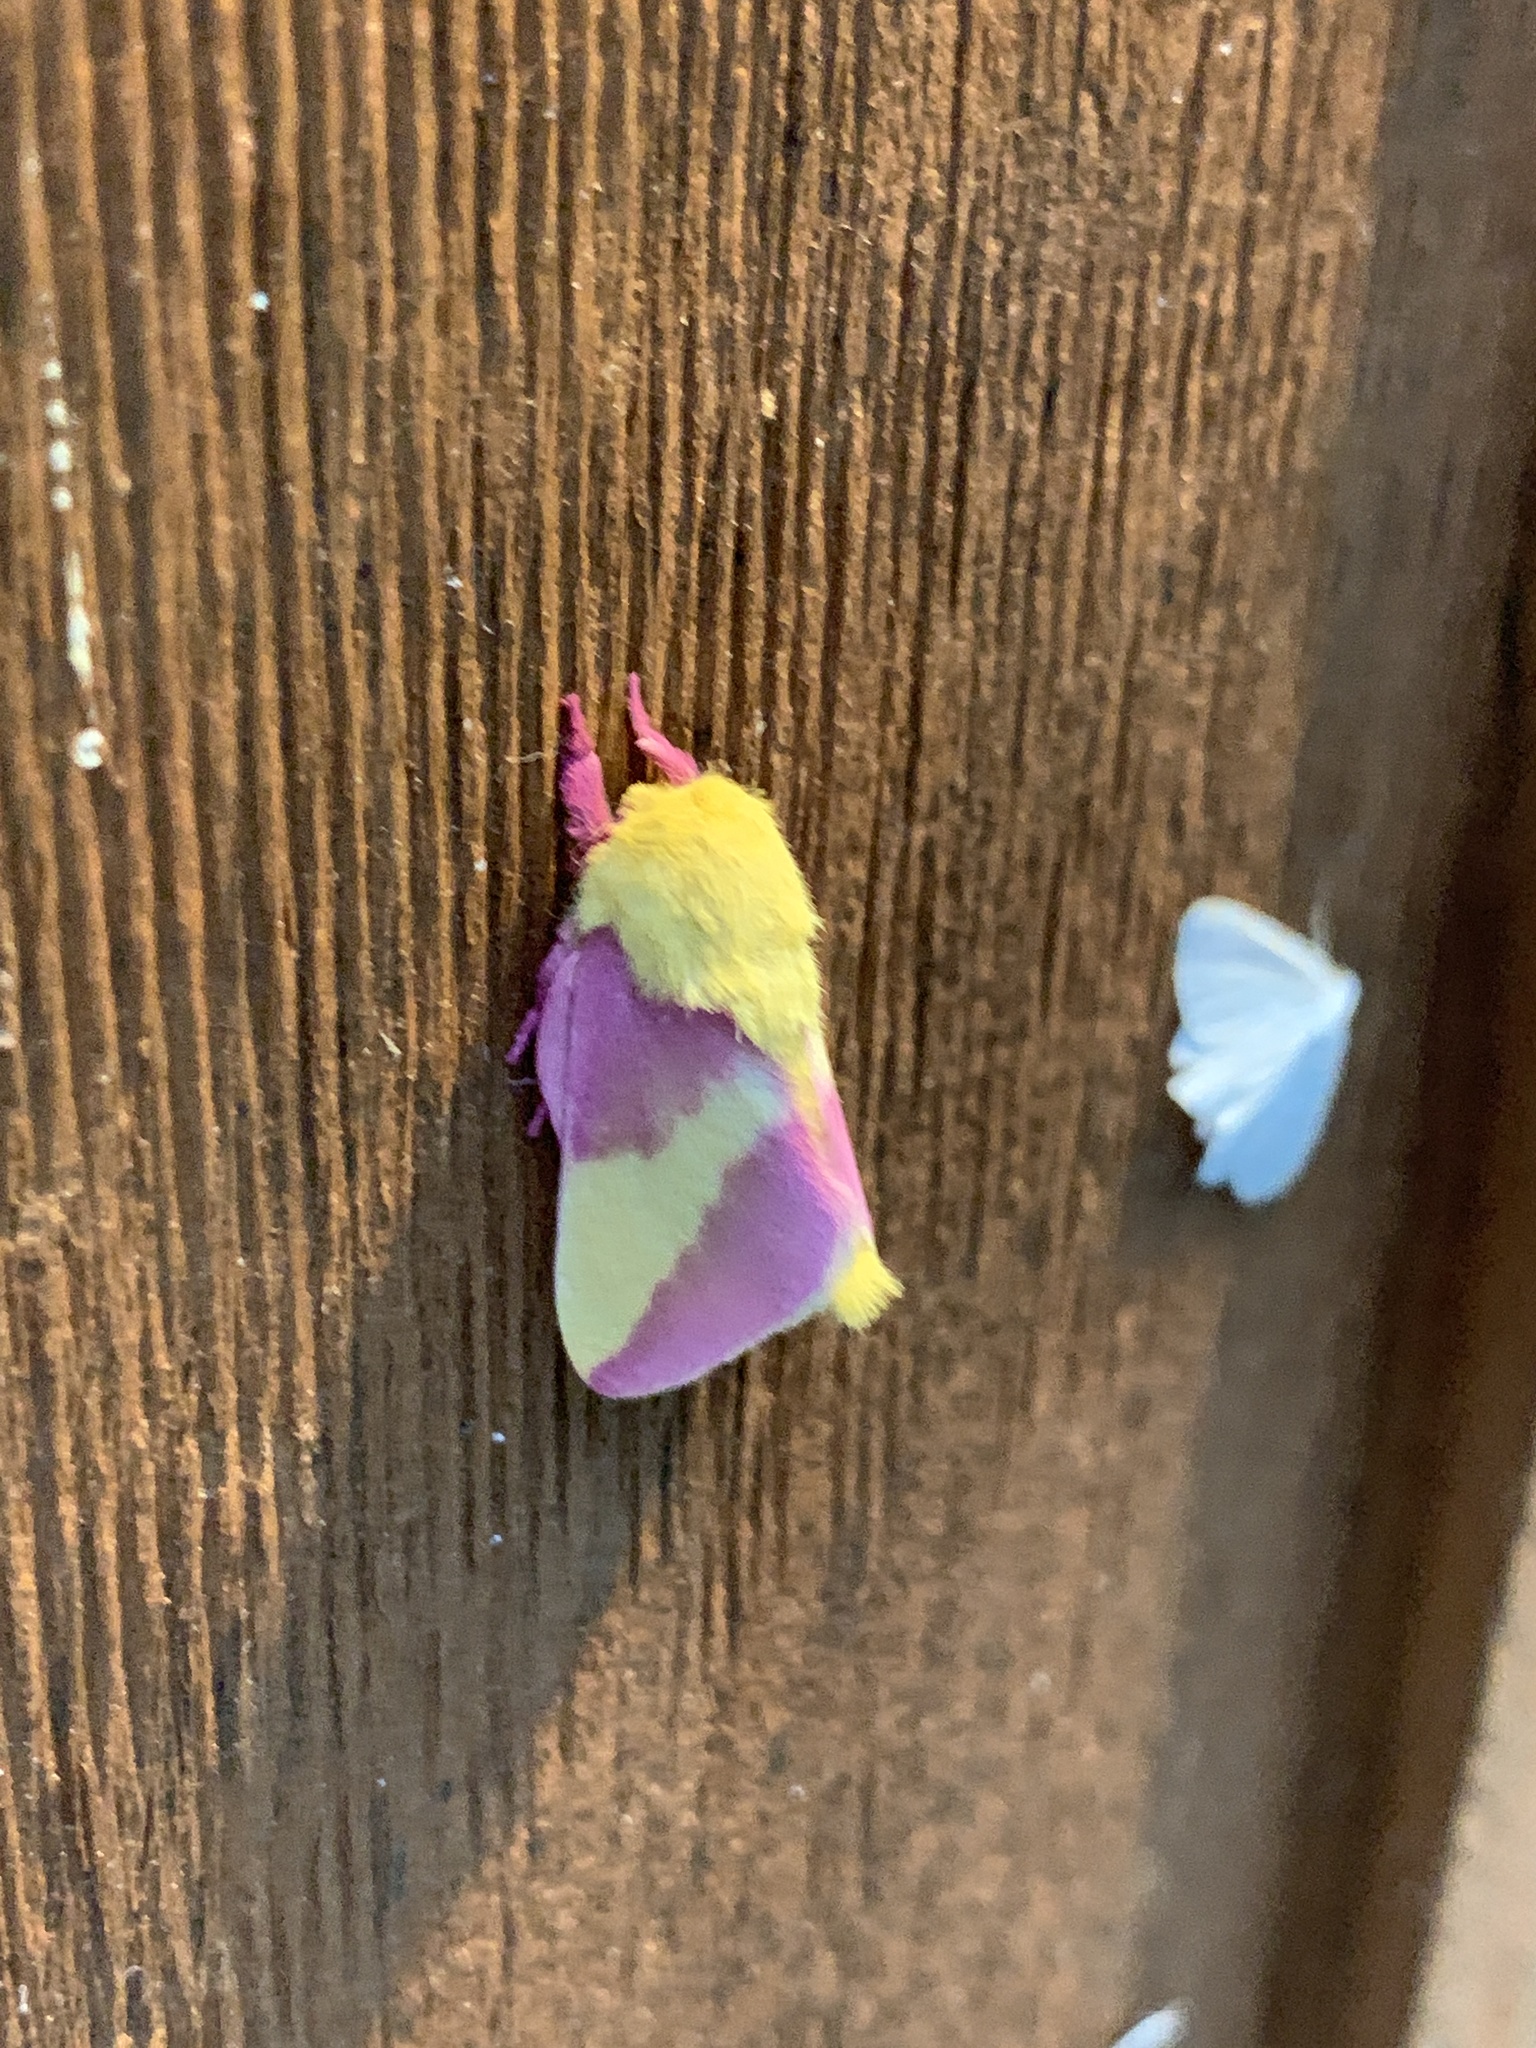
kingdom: Animalia
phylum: Arthropoda
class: Insecta
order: Lepidoptera
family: Saturniidae
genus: Dryocampa
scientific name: Dryocampa rubicunda
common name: Rosy maple moth
